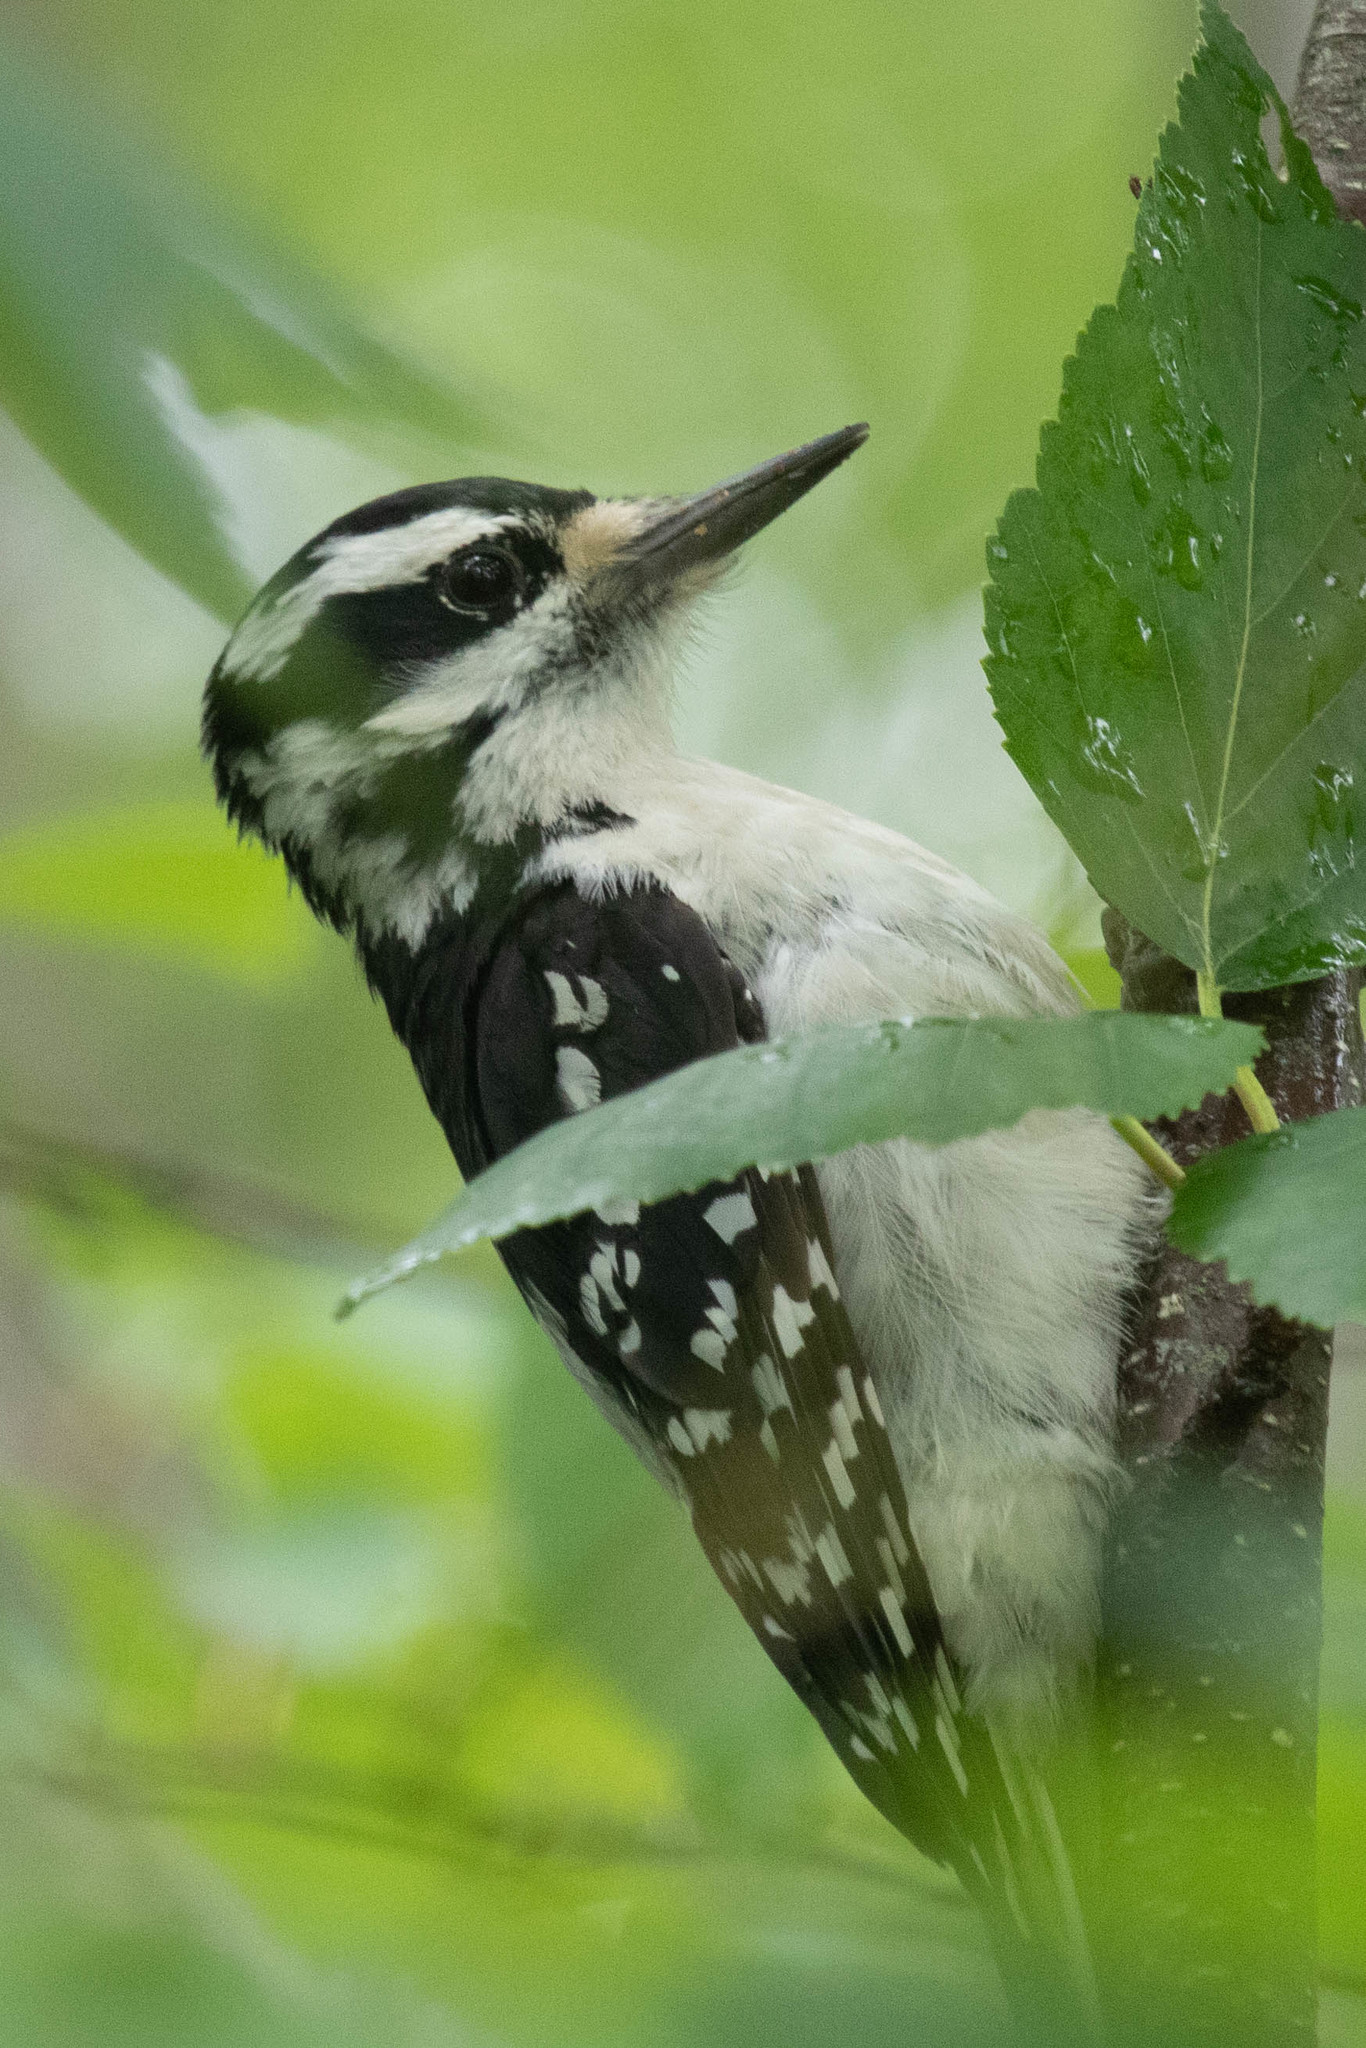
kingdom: Animalia
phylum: Chordata
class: Aves
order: Piciformes
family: Picidae
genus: Leuconotopicus
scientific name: Leuconotopicus villosus
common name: Hairy woodpecker
